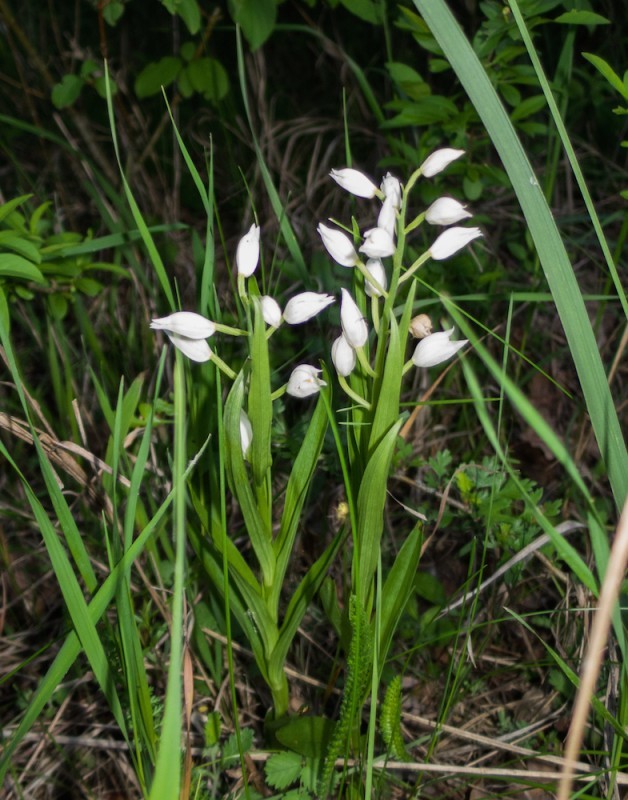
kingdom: Plantae
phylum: Tracheophyta
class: Liliopsida
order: Asparagales
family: Orchidaceae
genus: Cephalanthera
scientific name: Cephalanthera longifolia
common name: Narrow-leaved helleborine
